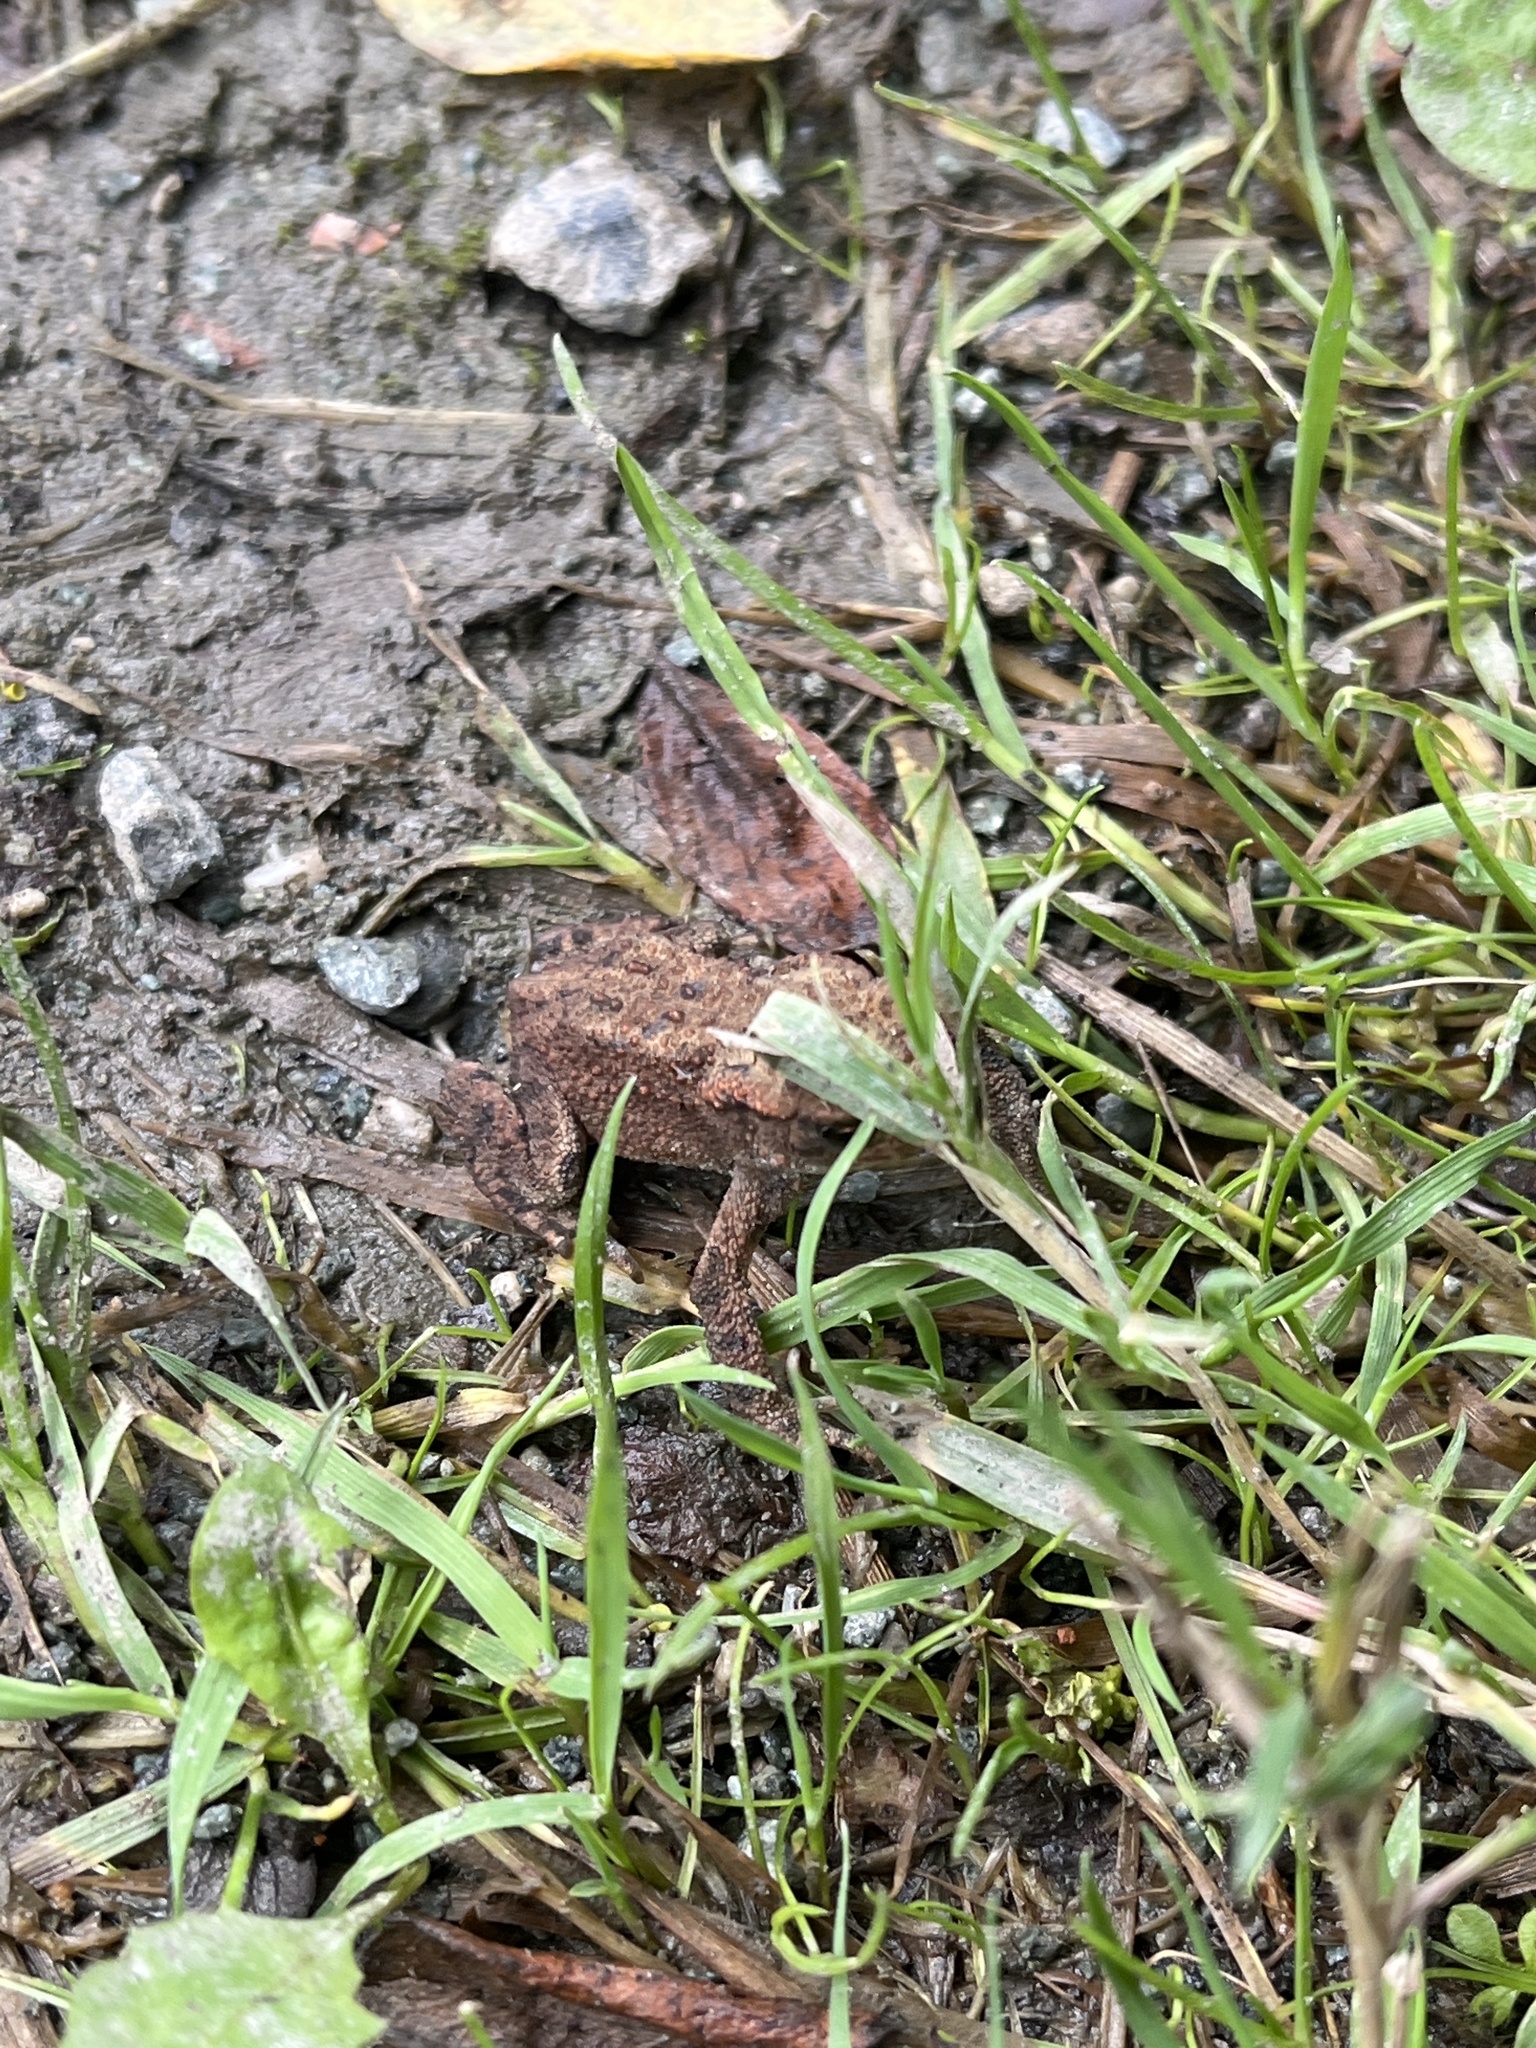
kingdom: Animalia
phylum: Chordata
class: Amphibia
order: Anura
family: Bufonidae
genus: Bufo
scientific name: Bufo bufo
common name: Common toad
